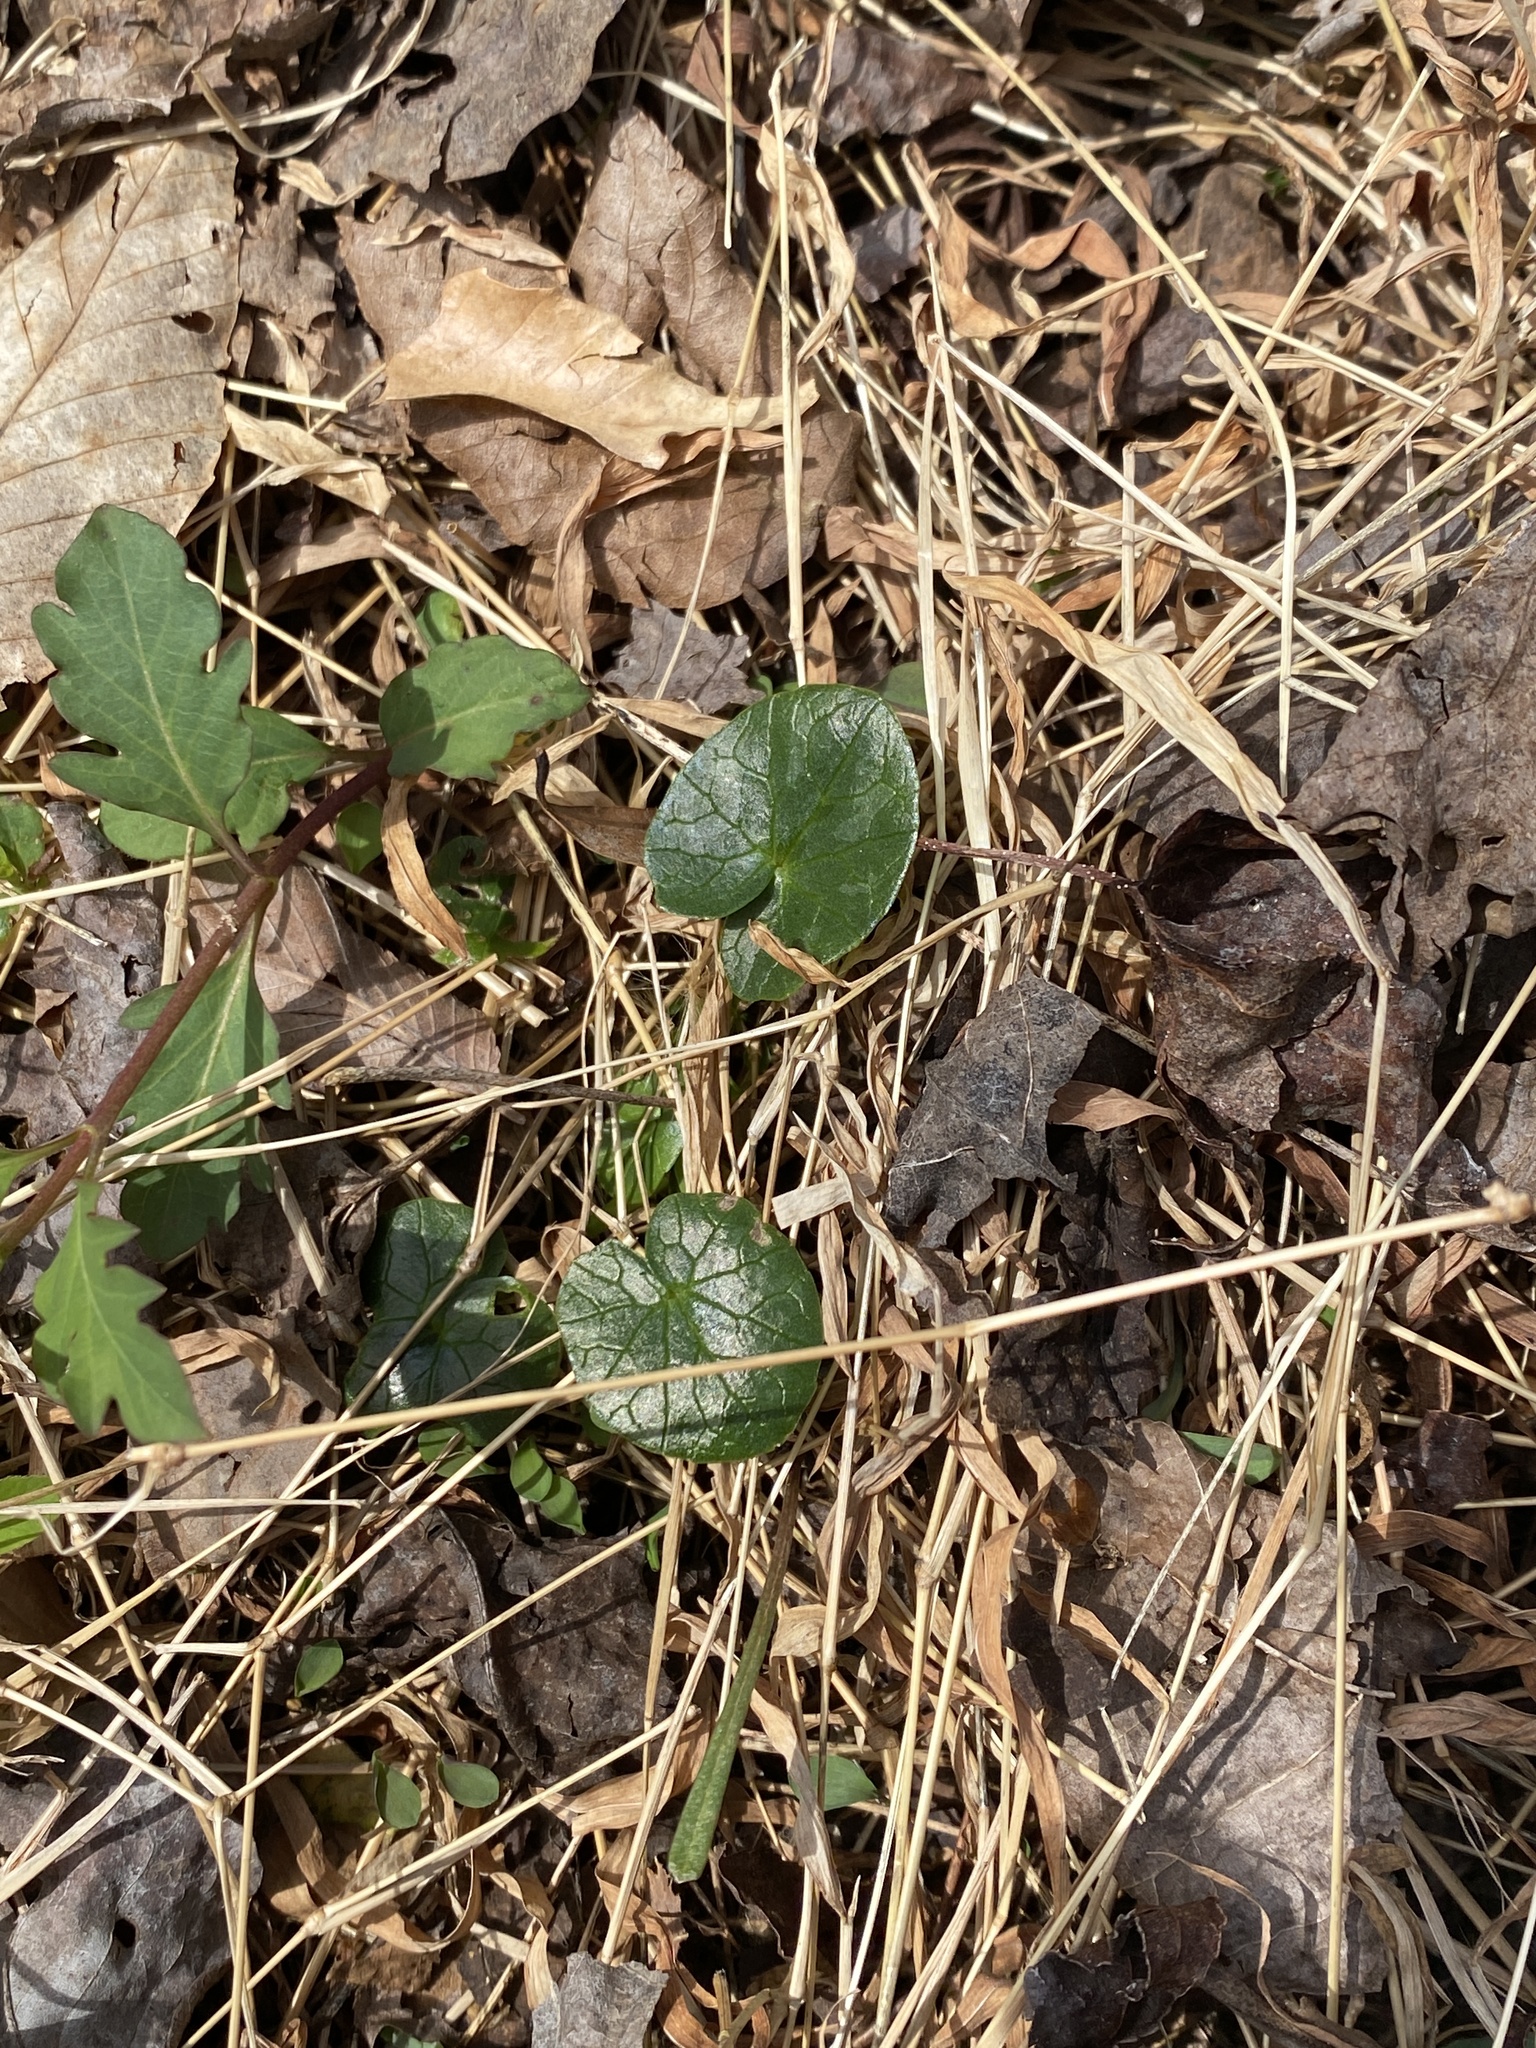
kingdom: Plantae
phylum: Tracheophyta
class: Magnoliopsida
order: Ranunculales
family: Ranunculaceae
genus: Ficaria
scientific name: Ficaria verna
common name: Lesser celandine
